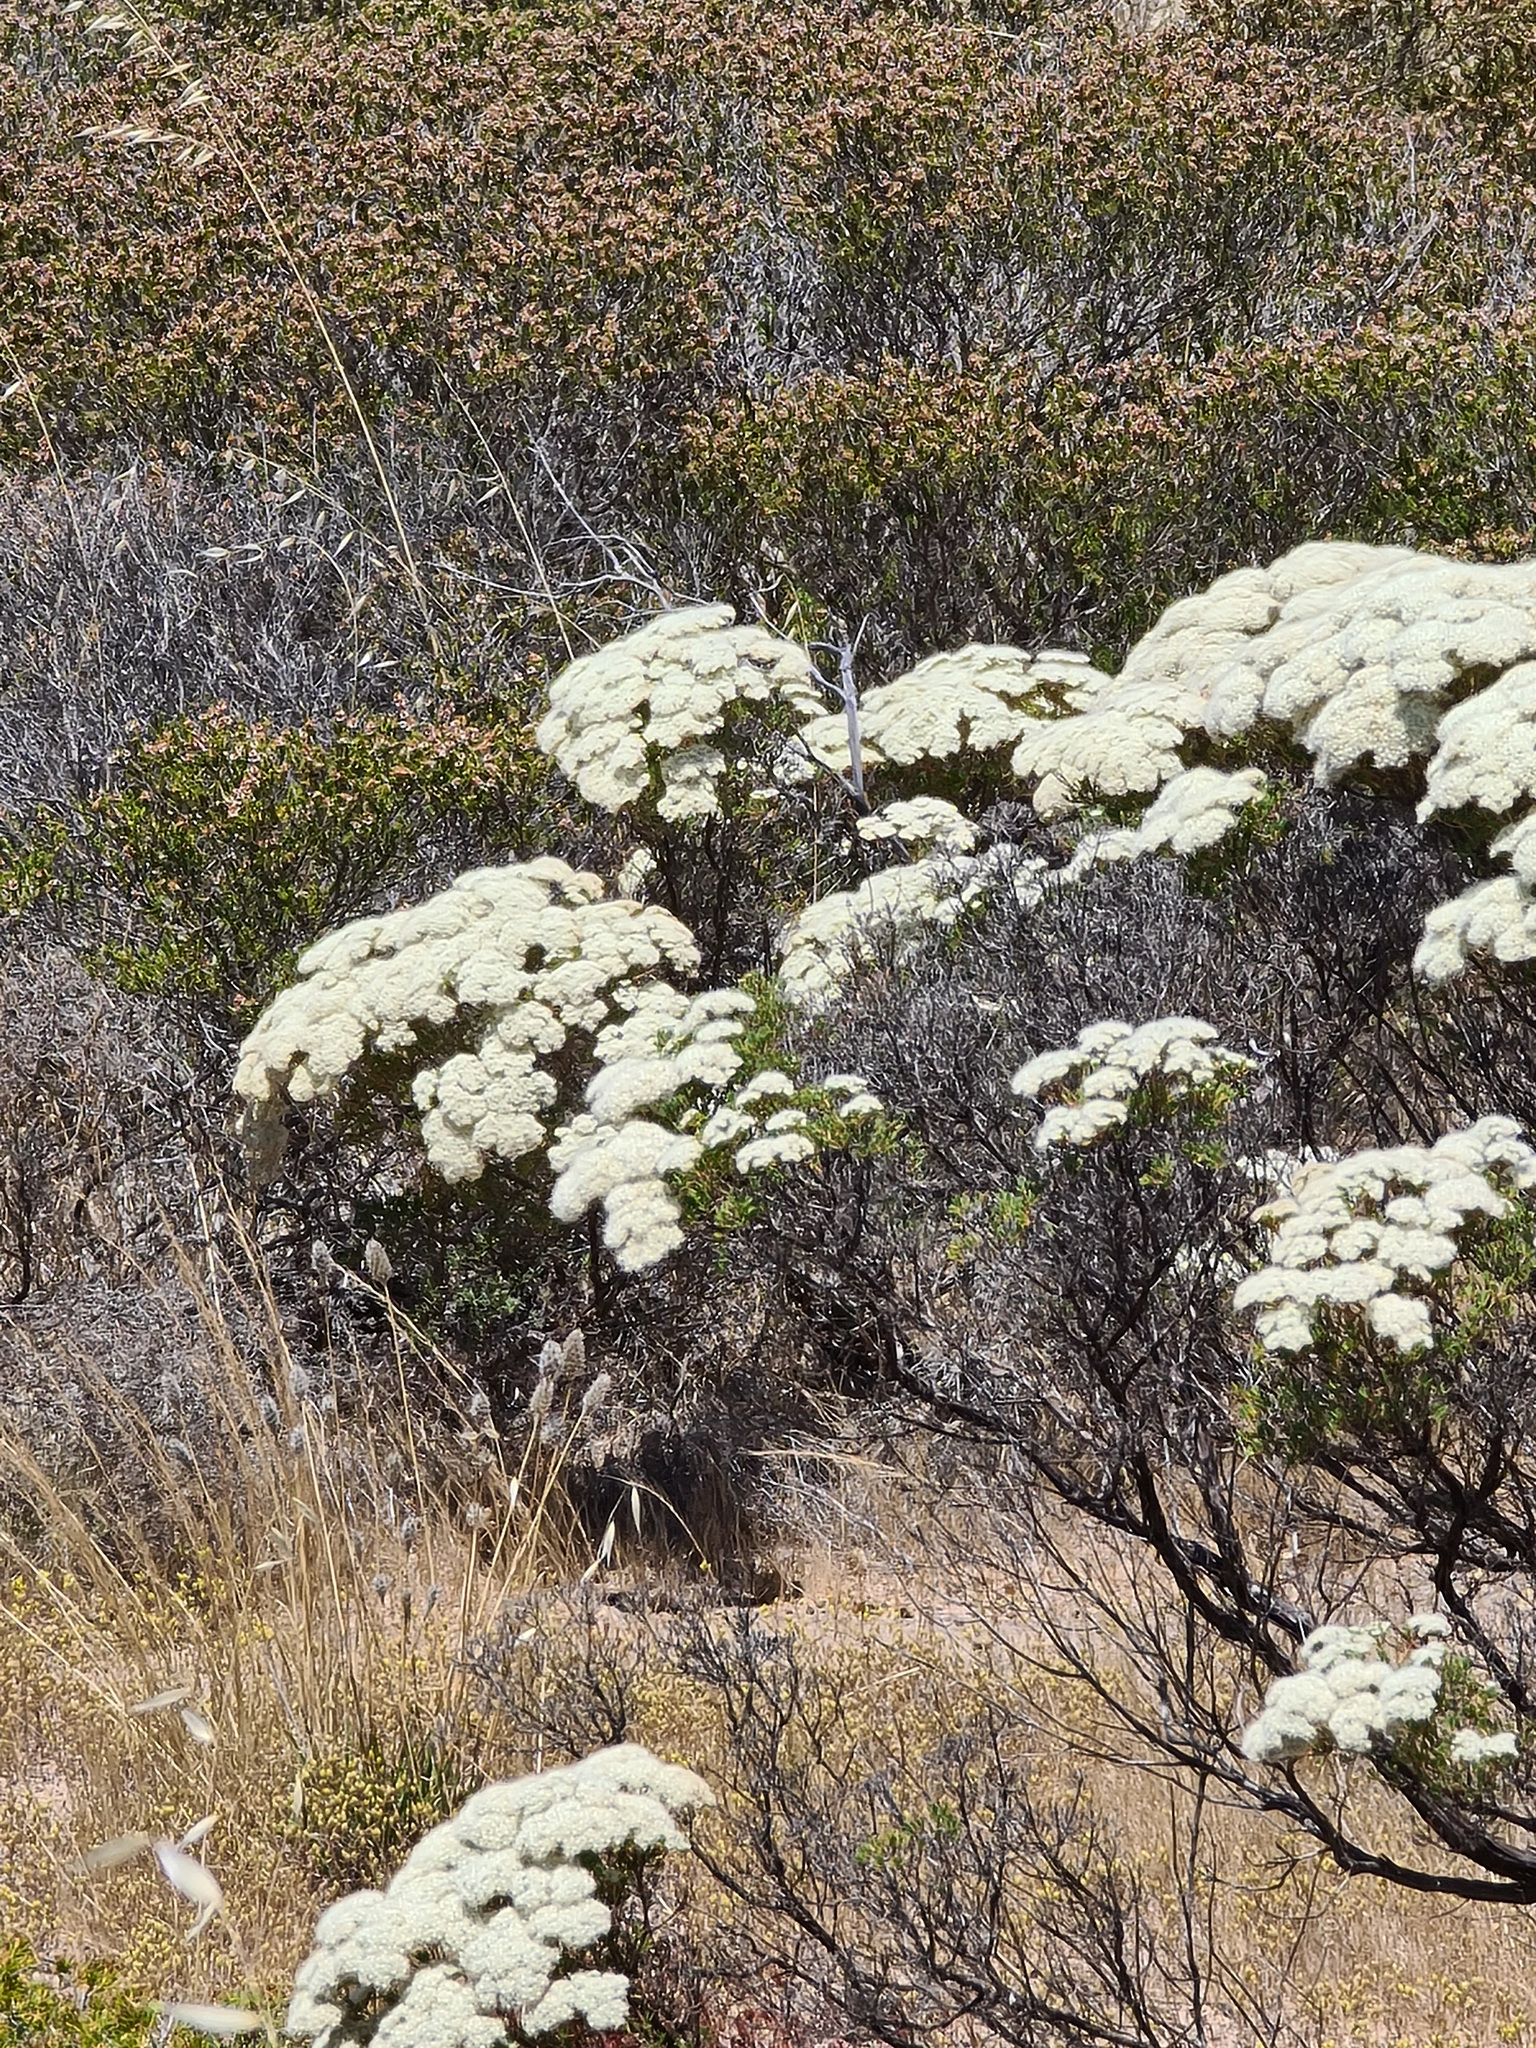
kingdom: Plantae
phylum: Tracheophyta
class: Magnoliopsida
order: Myrtales
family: Myrtaceae
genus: Verticordia
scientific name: Verticordia polytricha
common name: Northern-cauliflower
